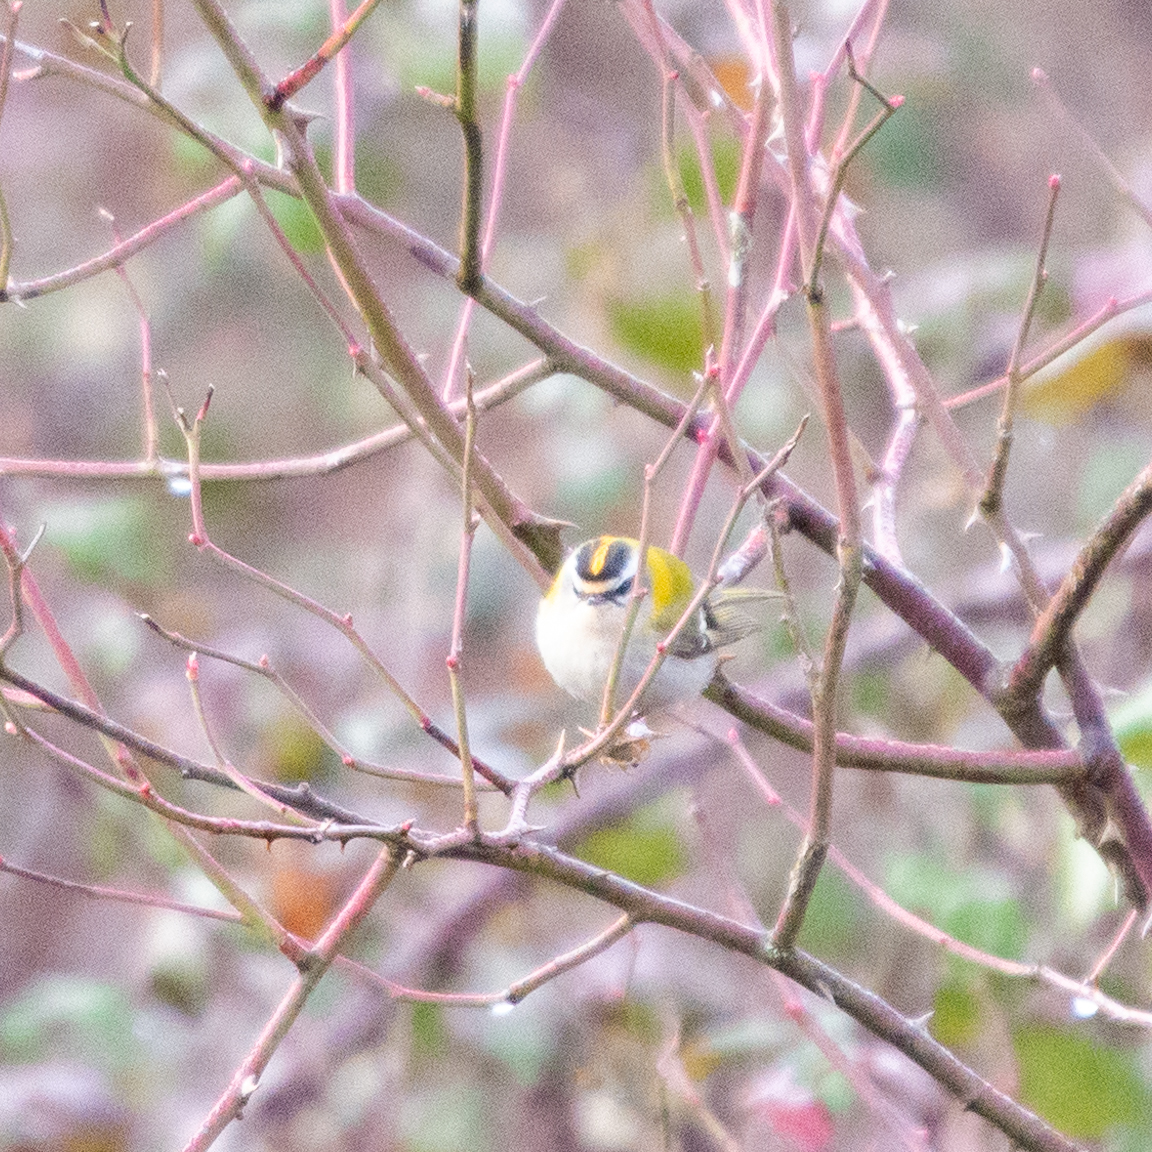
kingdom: Animalia
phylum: Chordata
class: Aves
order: Passeriformes
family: Regulidae
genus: Regulus
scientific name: Regulus ignicapilla
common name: Firecrest
